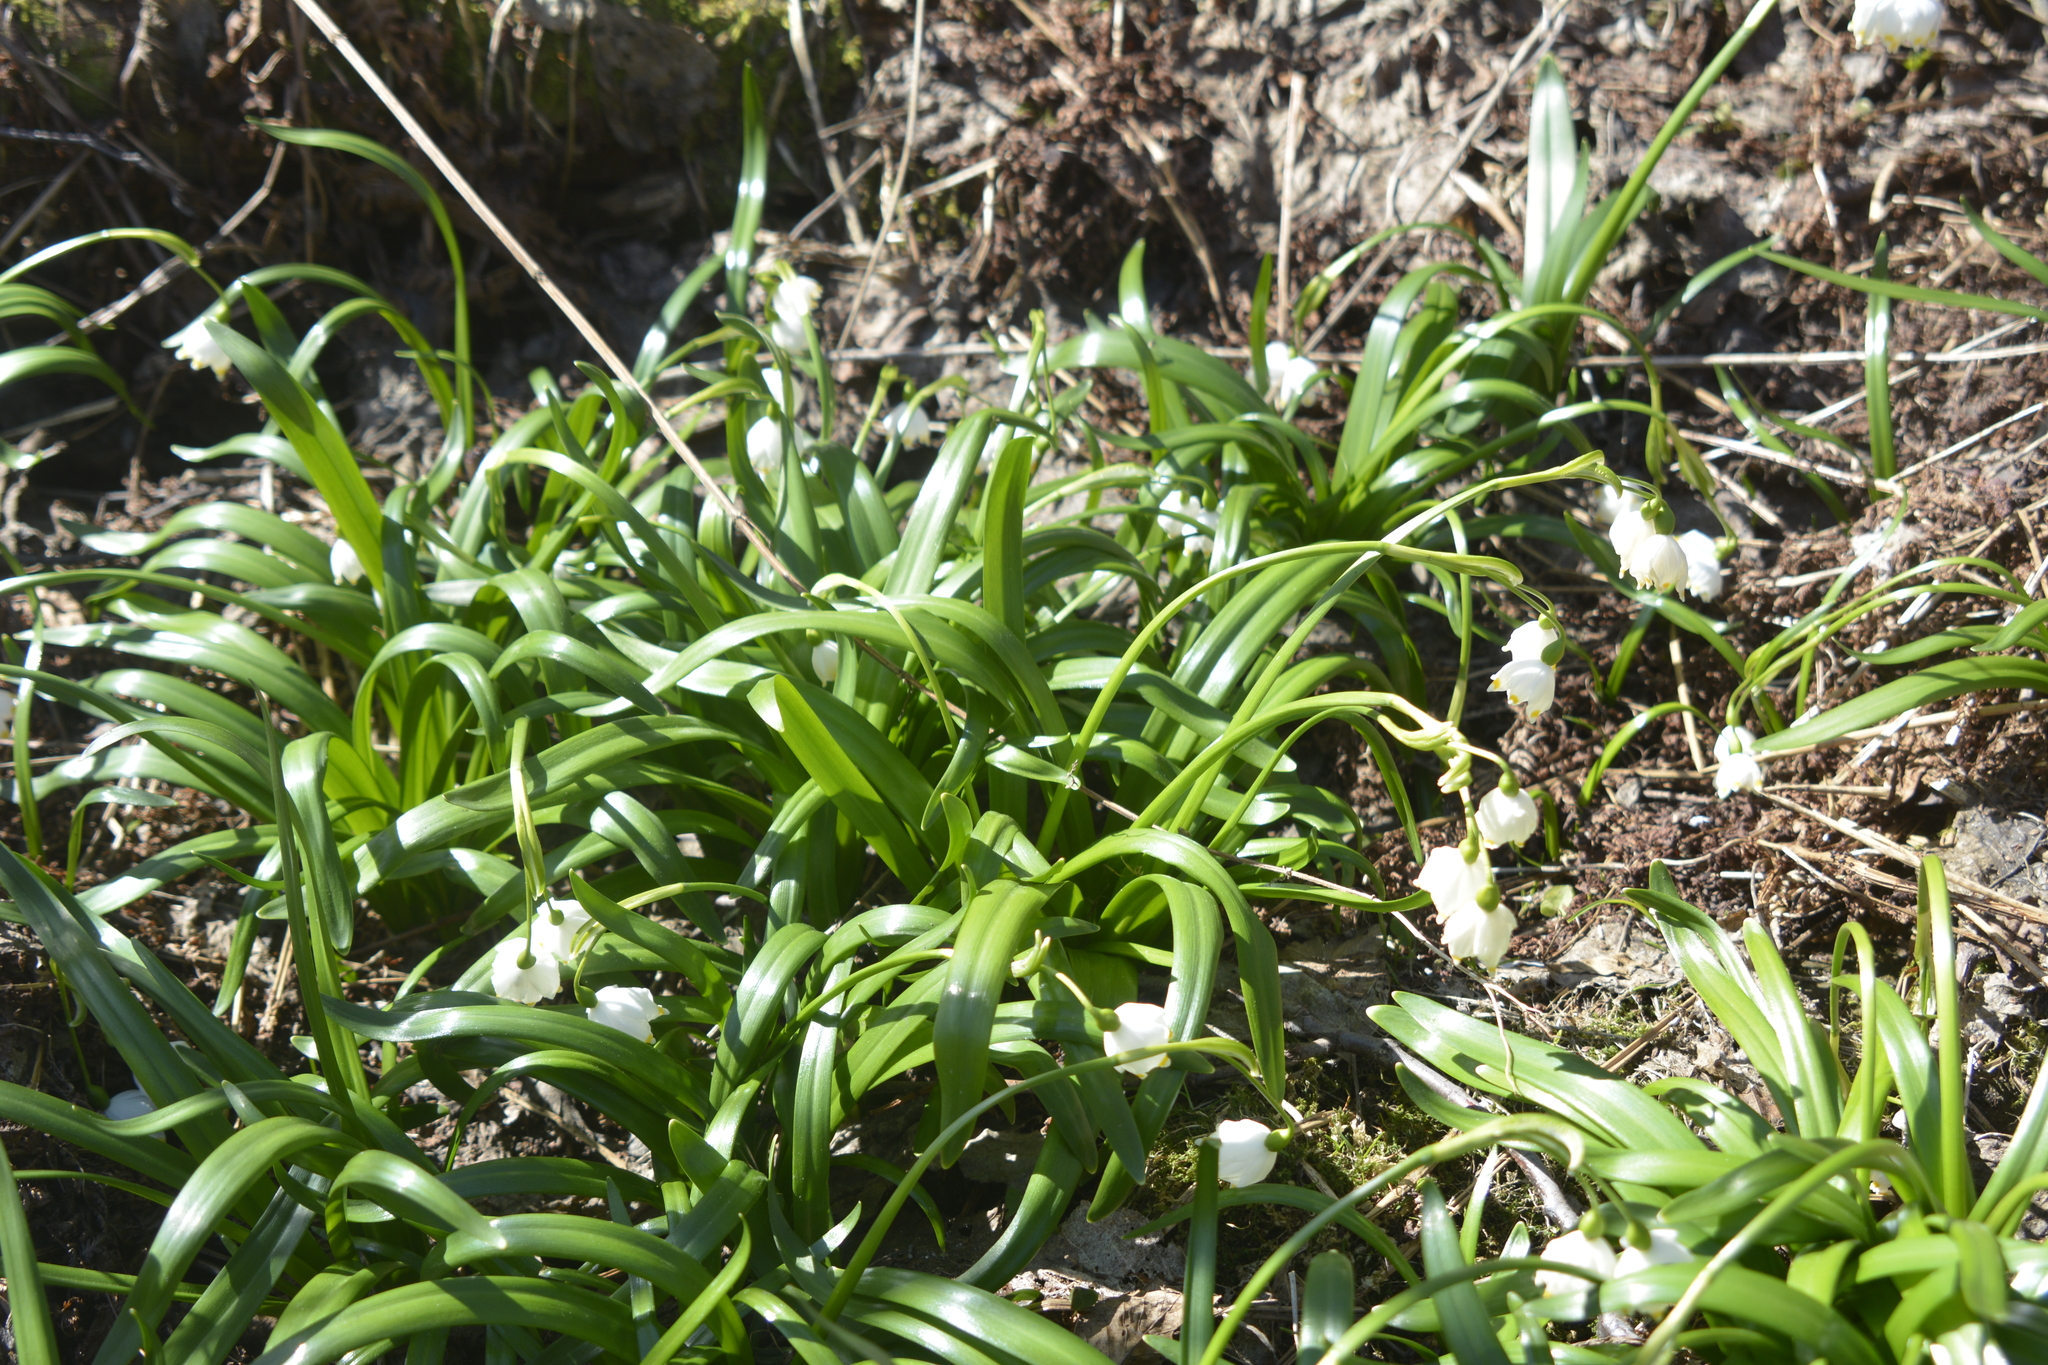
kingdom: Plantae
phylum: Tracheophyta
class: Liliopsida
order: Asparagales
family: Amaryllidaceae
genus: Leucojum
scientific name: Leucojum vernum
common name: Spring snowflake
